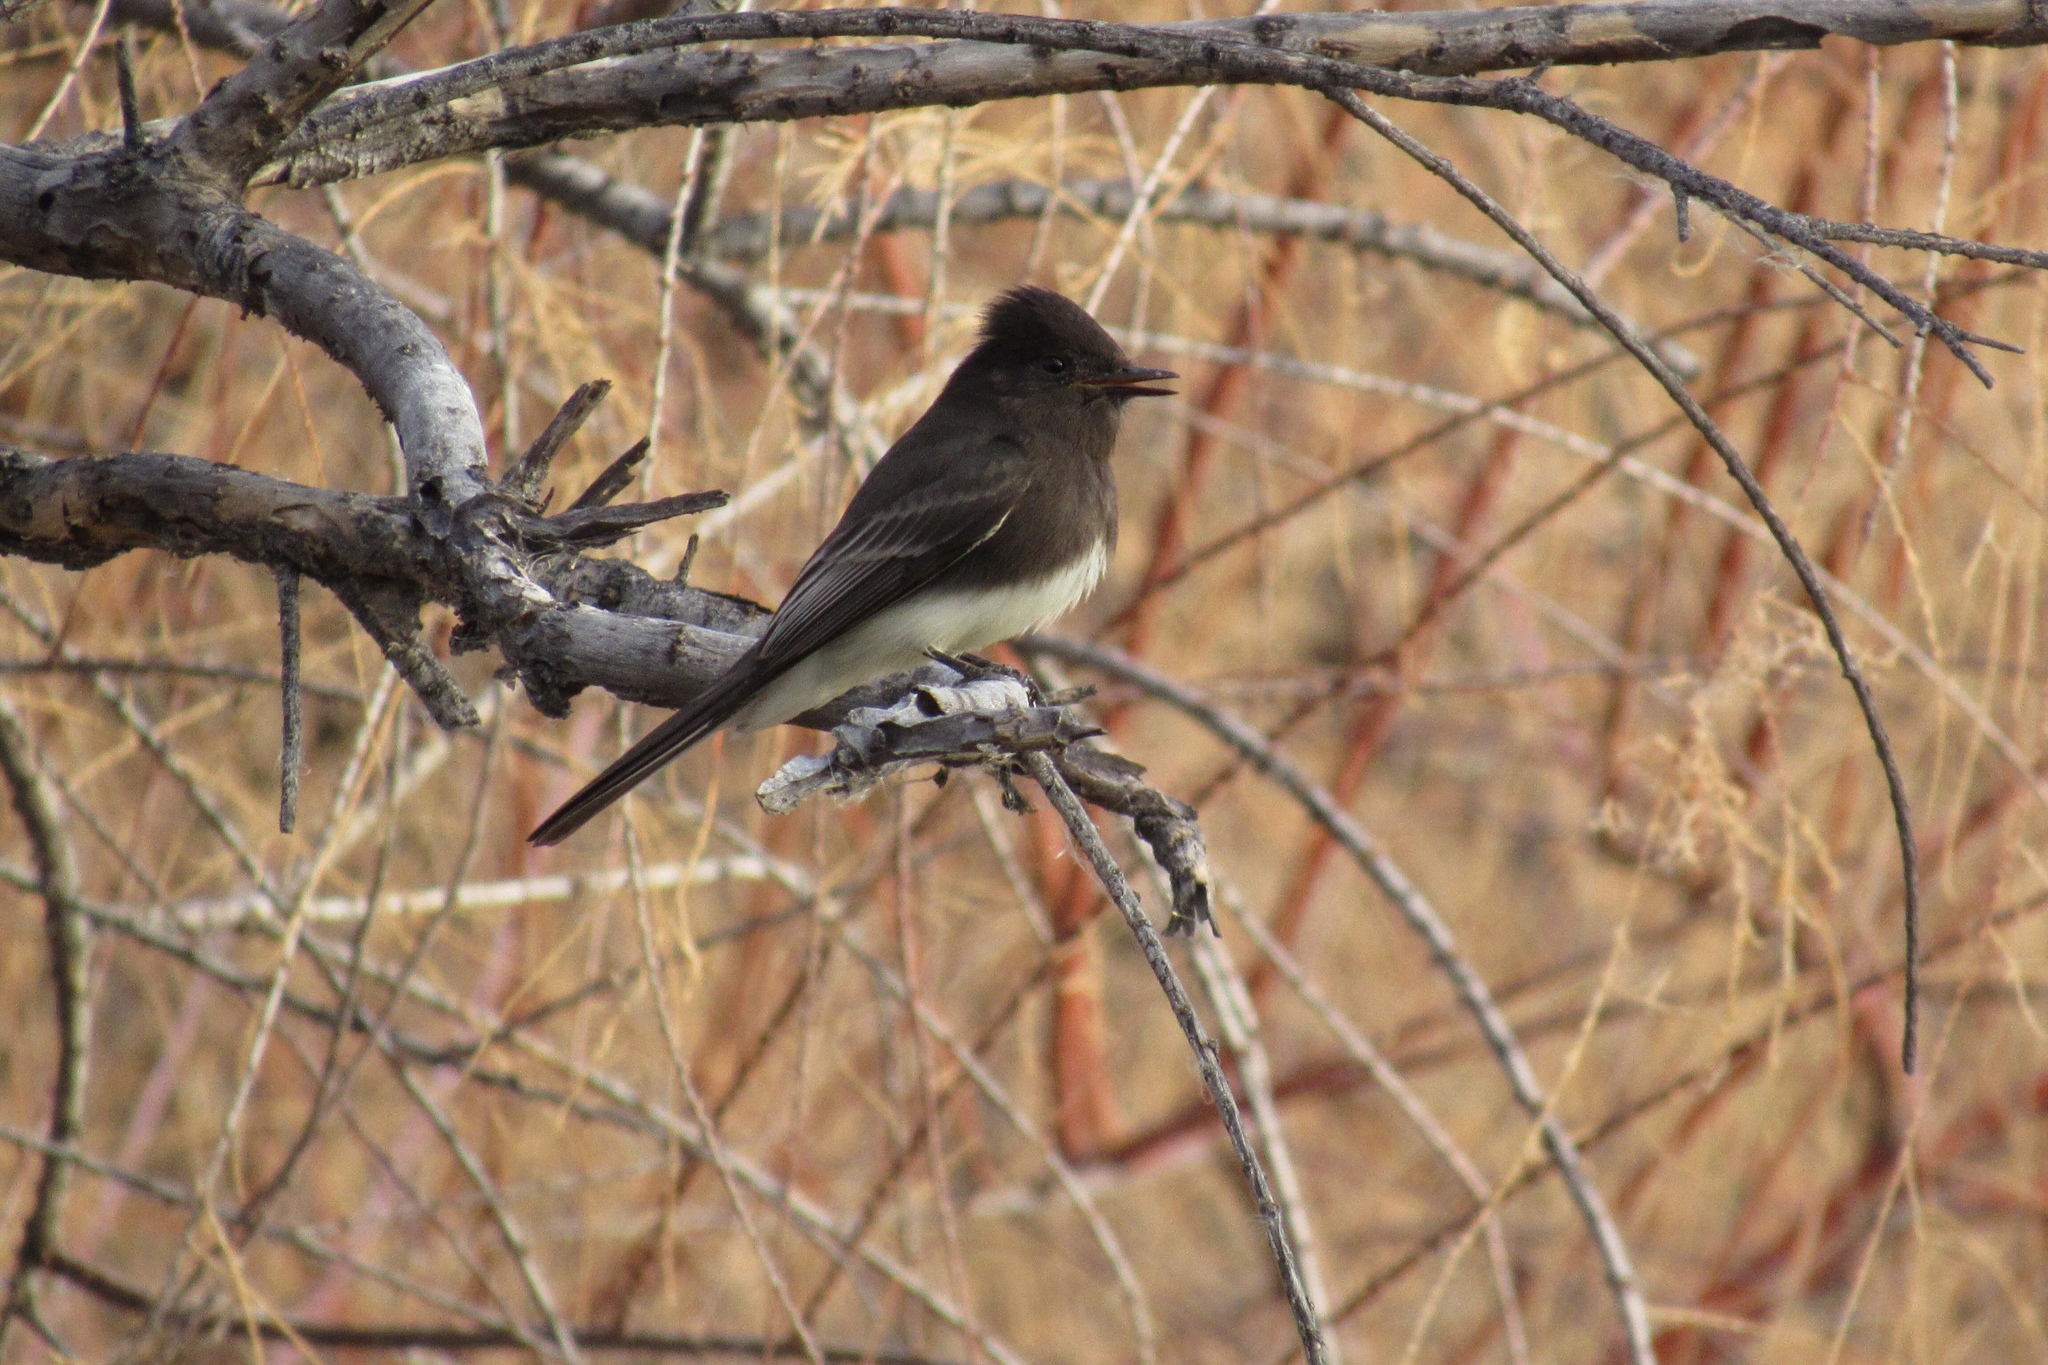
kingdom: Animalia
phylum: Chordata
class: Aves
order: Passeriformes
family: Tyrannidae
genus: Sayornis
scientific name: Sayornis nigricans
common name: Black phoebe
